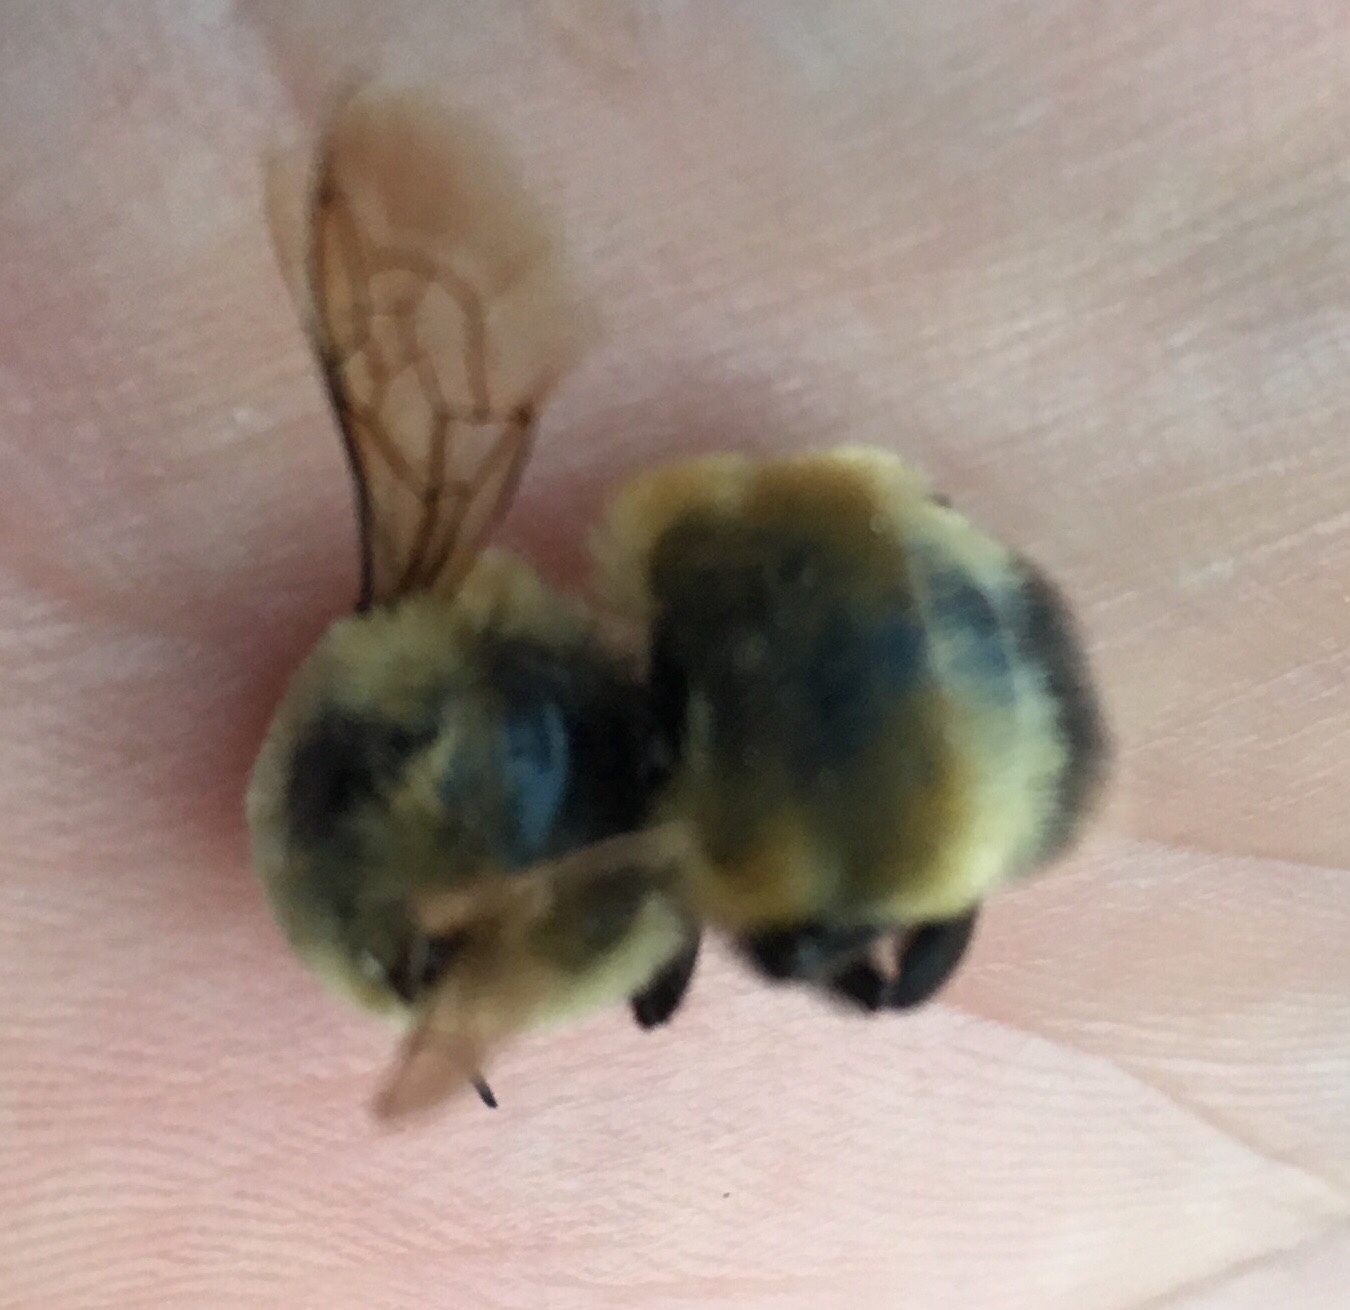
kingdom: Animalia
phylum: Arthropoda
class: Insecta
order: Hymenoptera
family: Apidae
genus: Bombus
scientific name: Bombus nevadensis
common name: Nevada bumble bee
